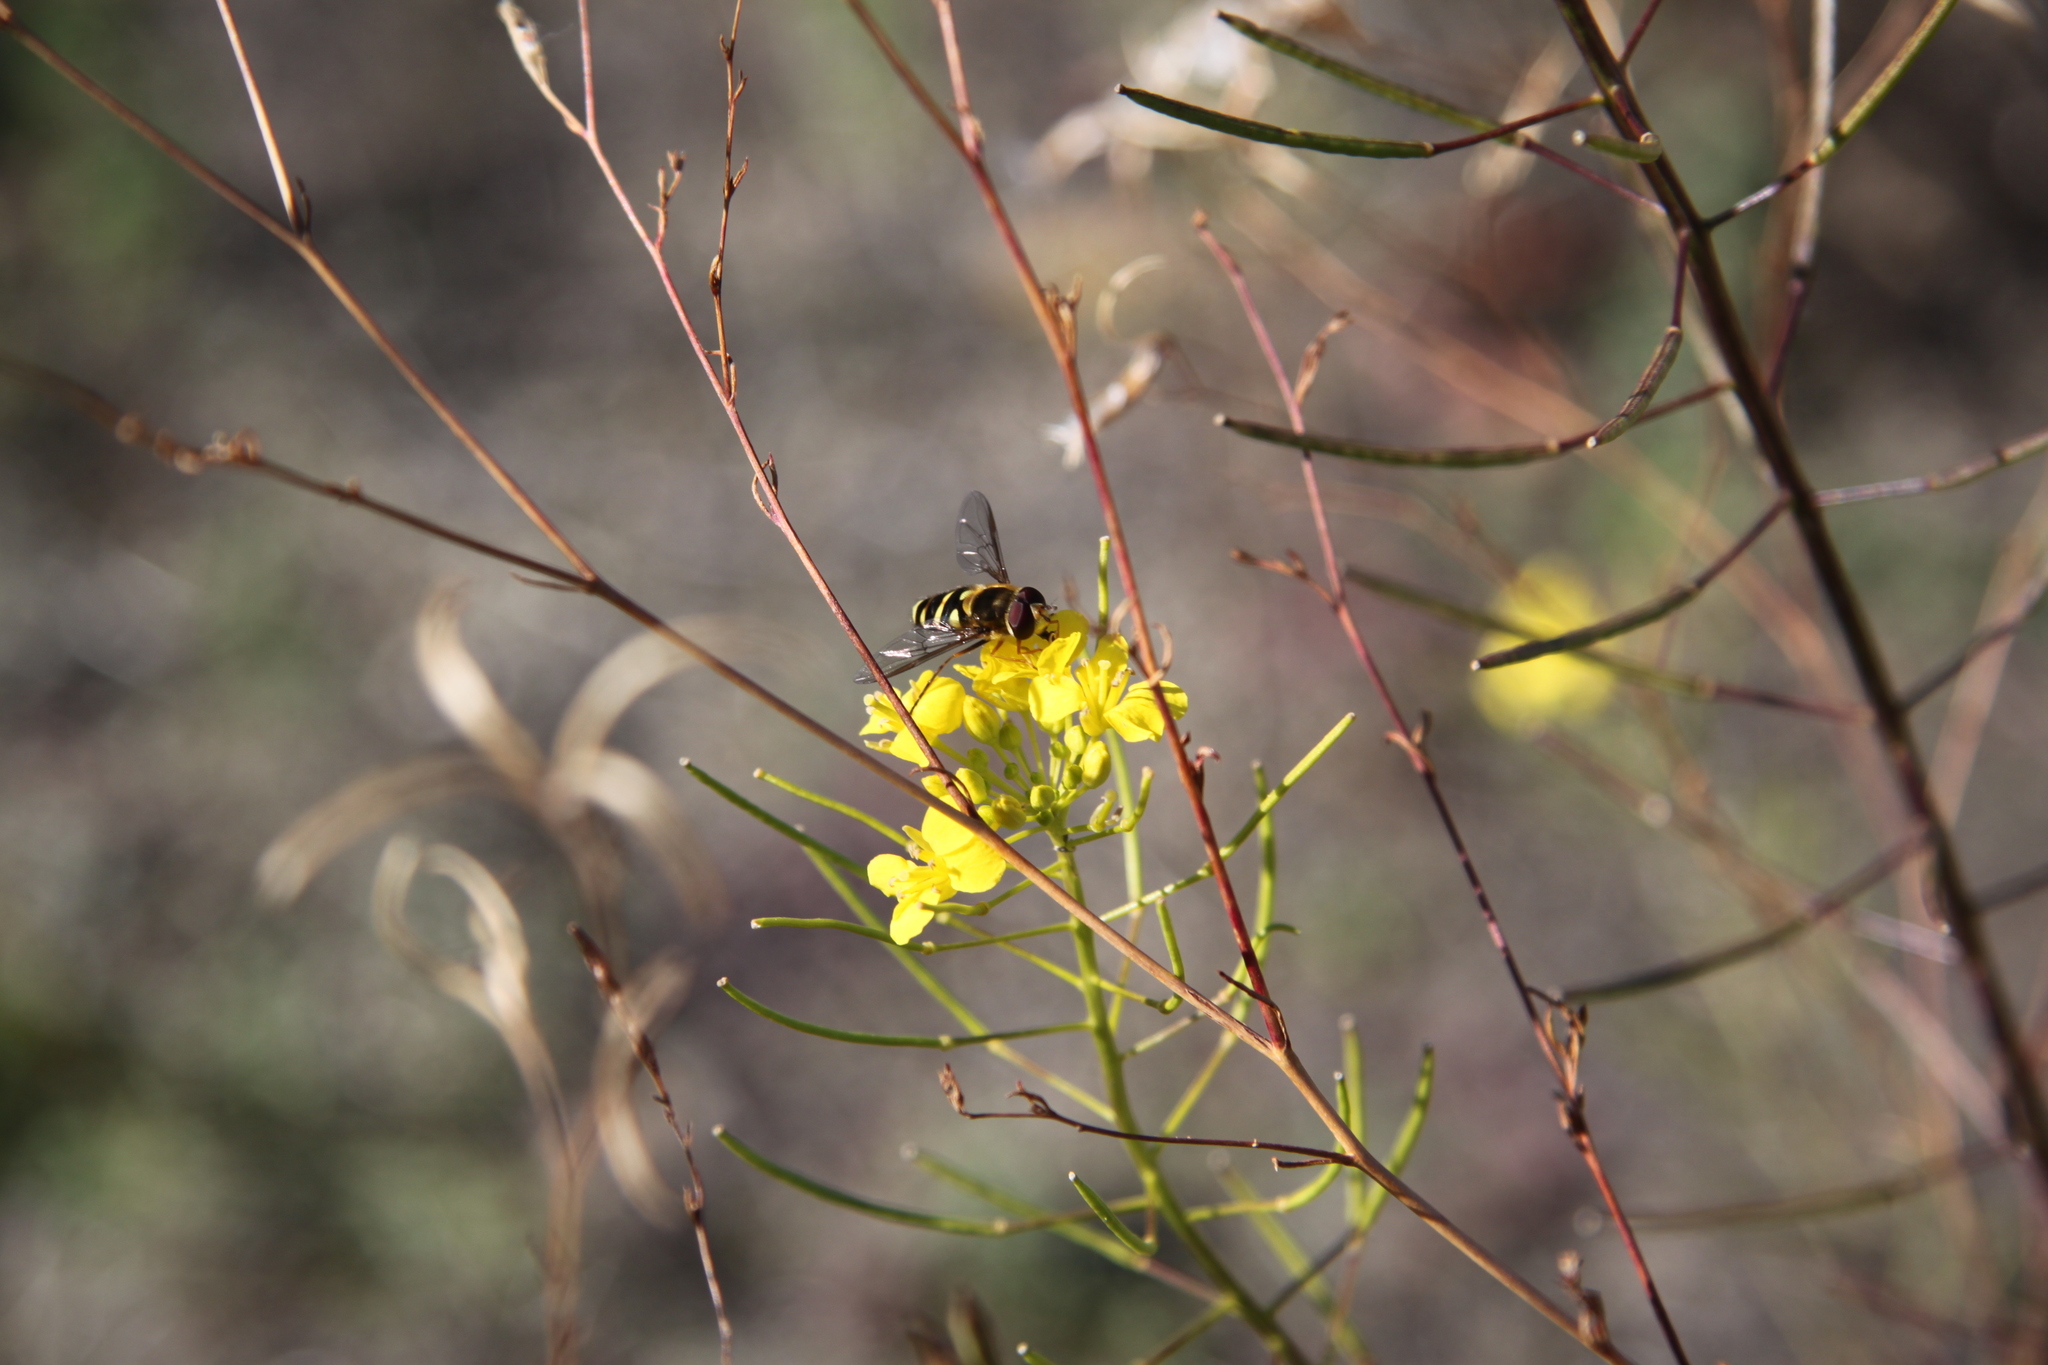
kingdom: Animalia
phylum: Arthropoda
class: Insecta
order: Diptera
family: Syrphidae
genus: Syrphus
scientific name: Syrphus opinator
